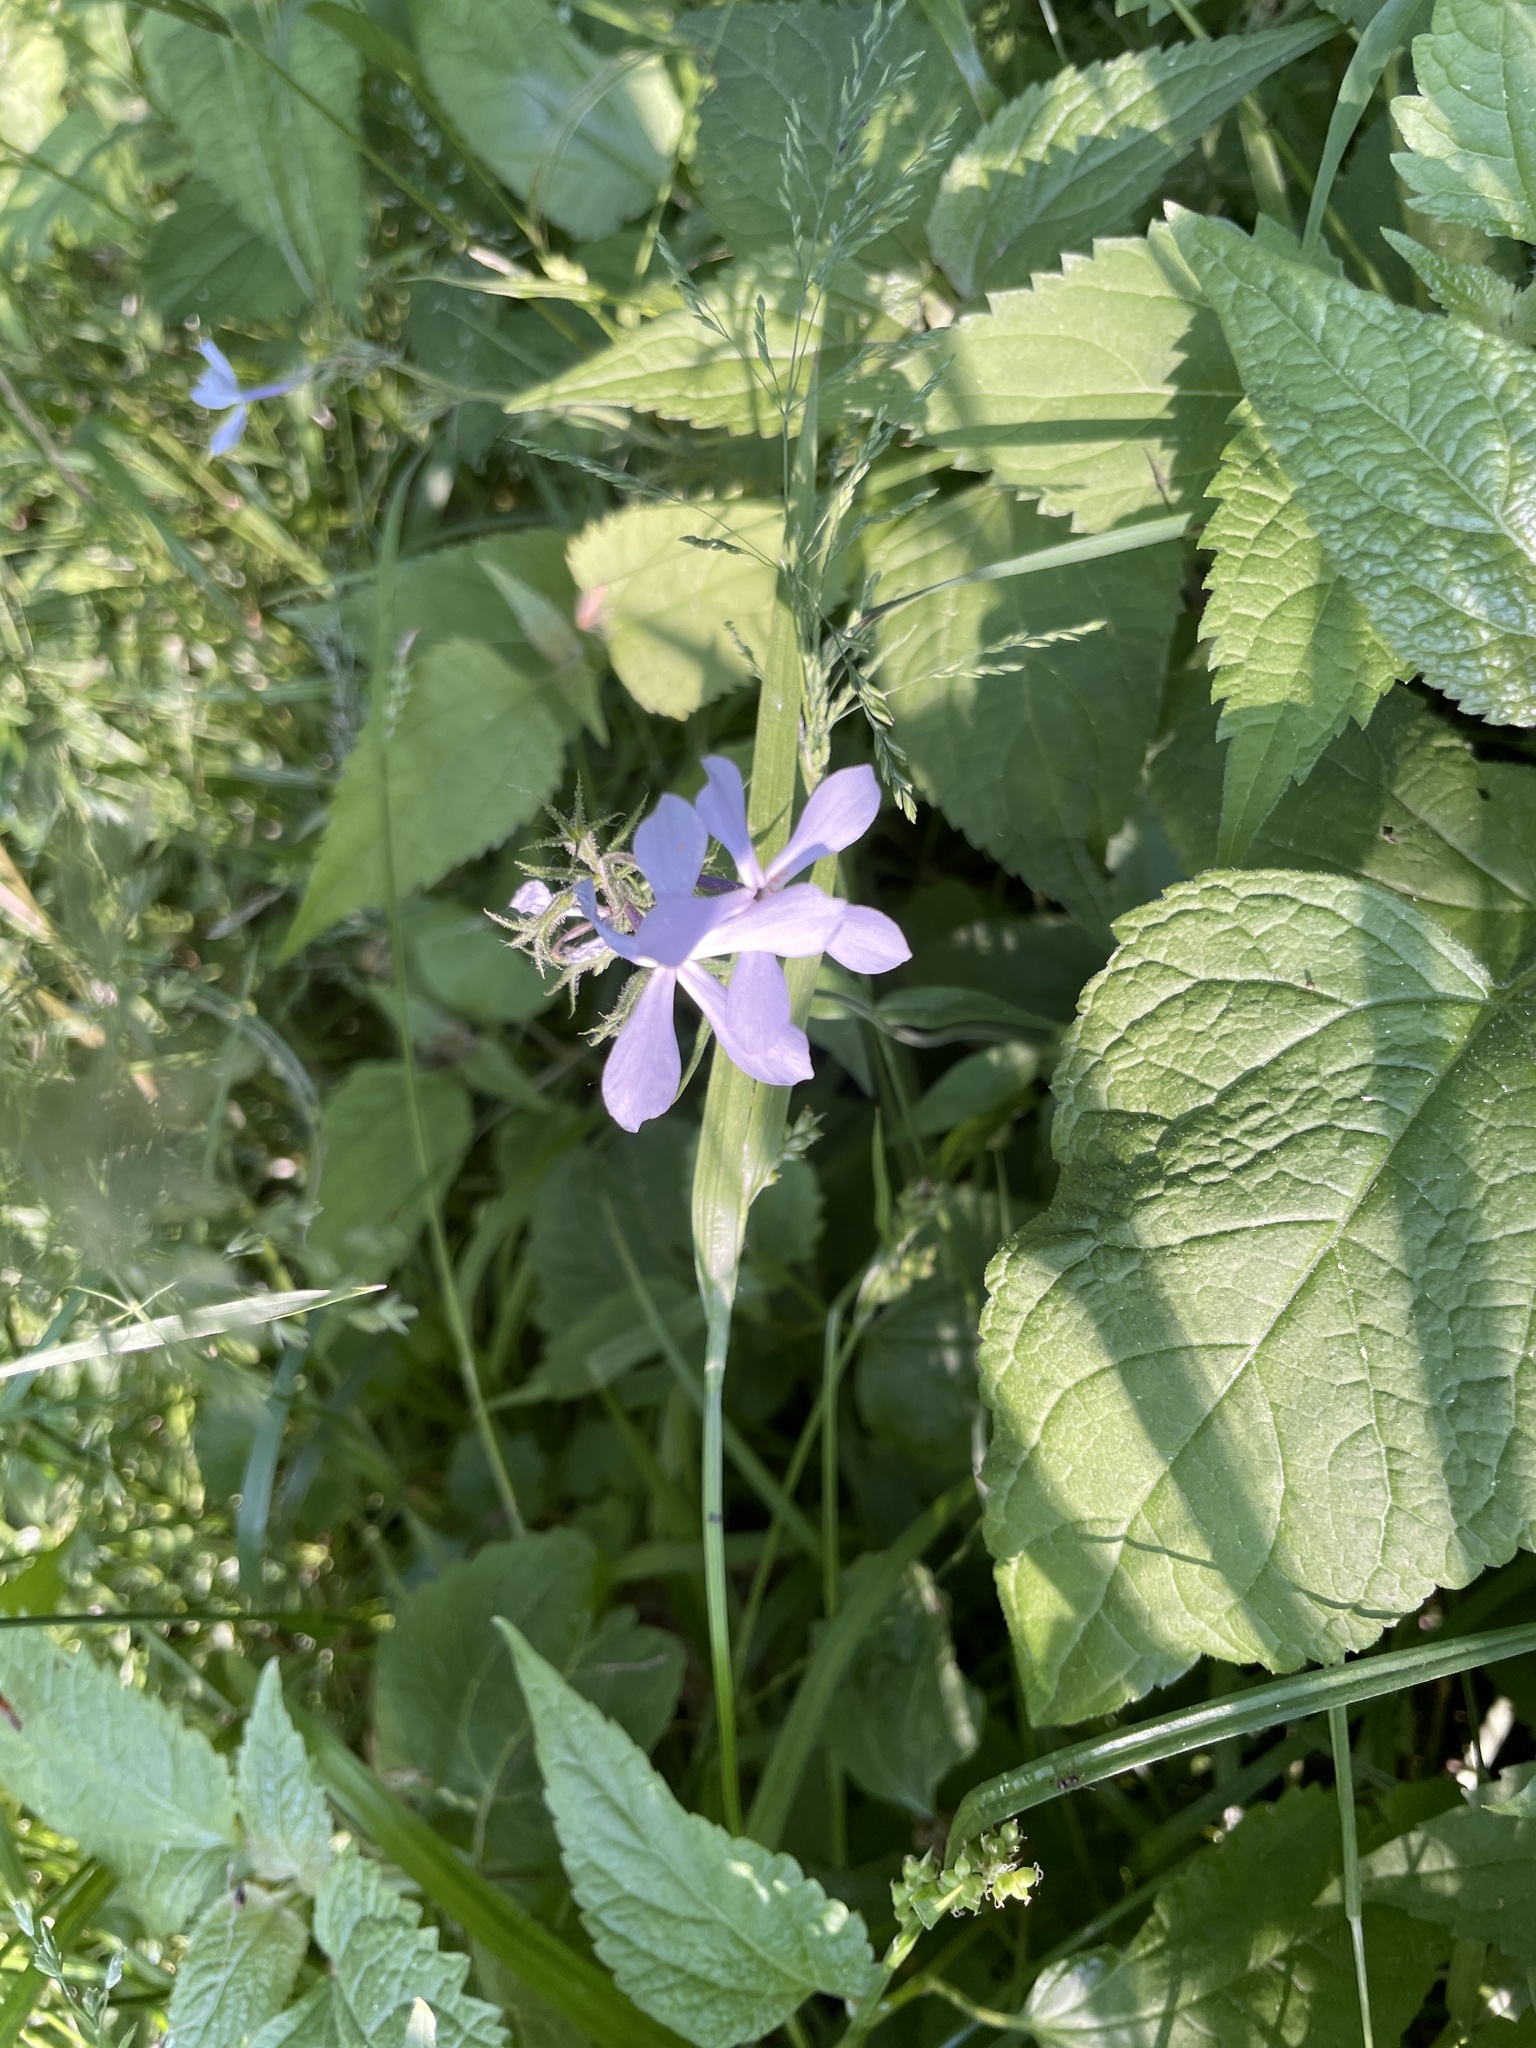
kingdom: Plantae
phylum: Tracheophyta
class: Magnoliopsida
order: Ericales
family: Polemoniaceae
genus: Phlox
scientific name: Phlox divaricata
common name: Blue phlox
